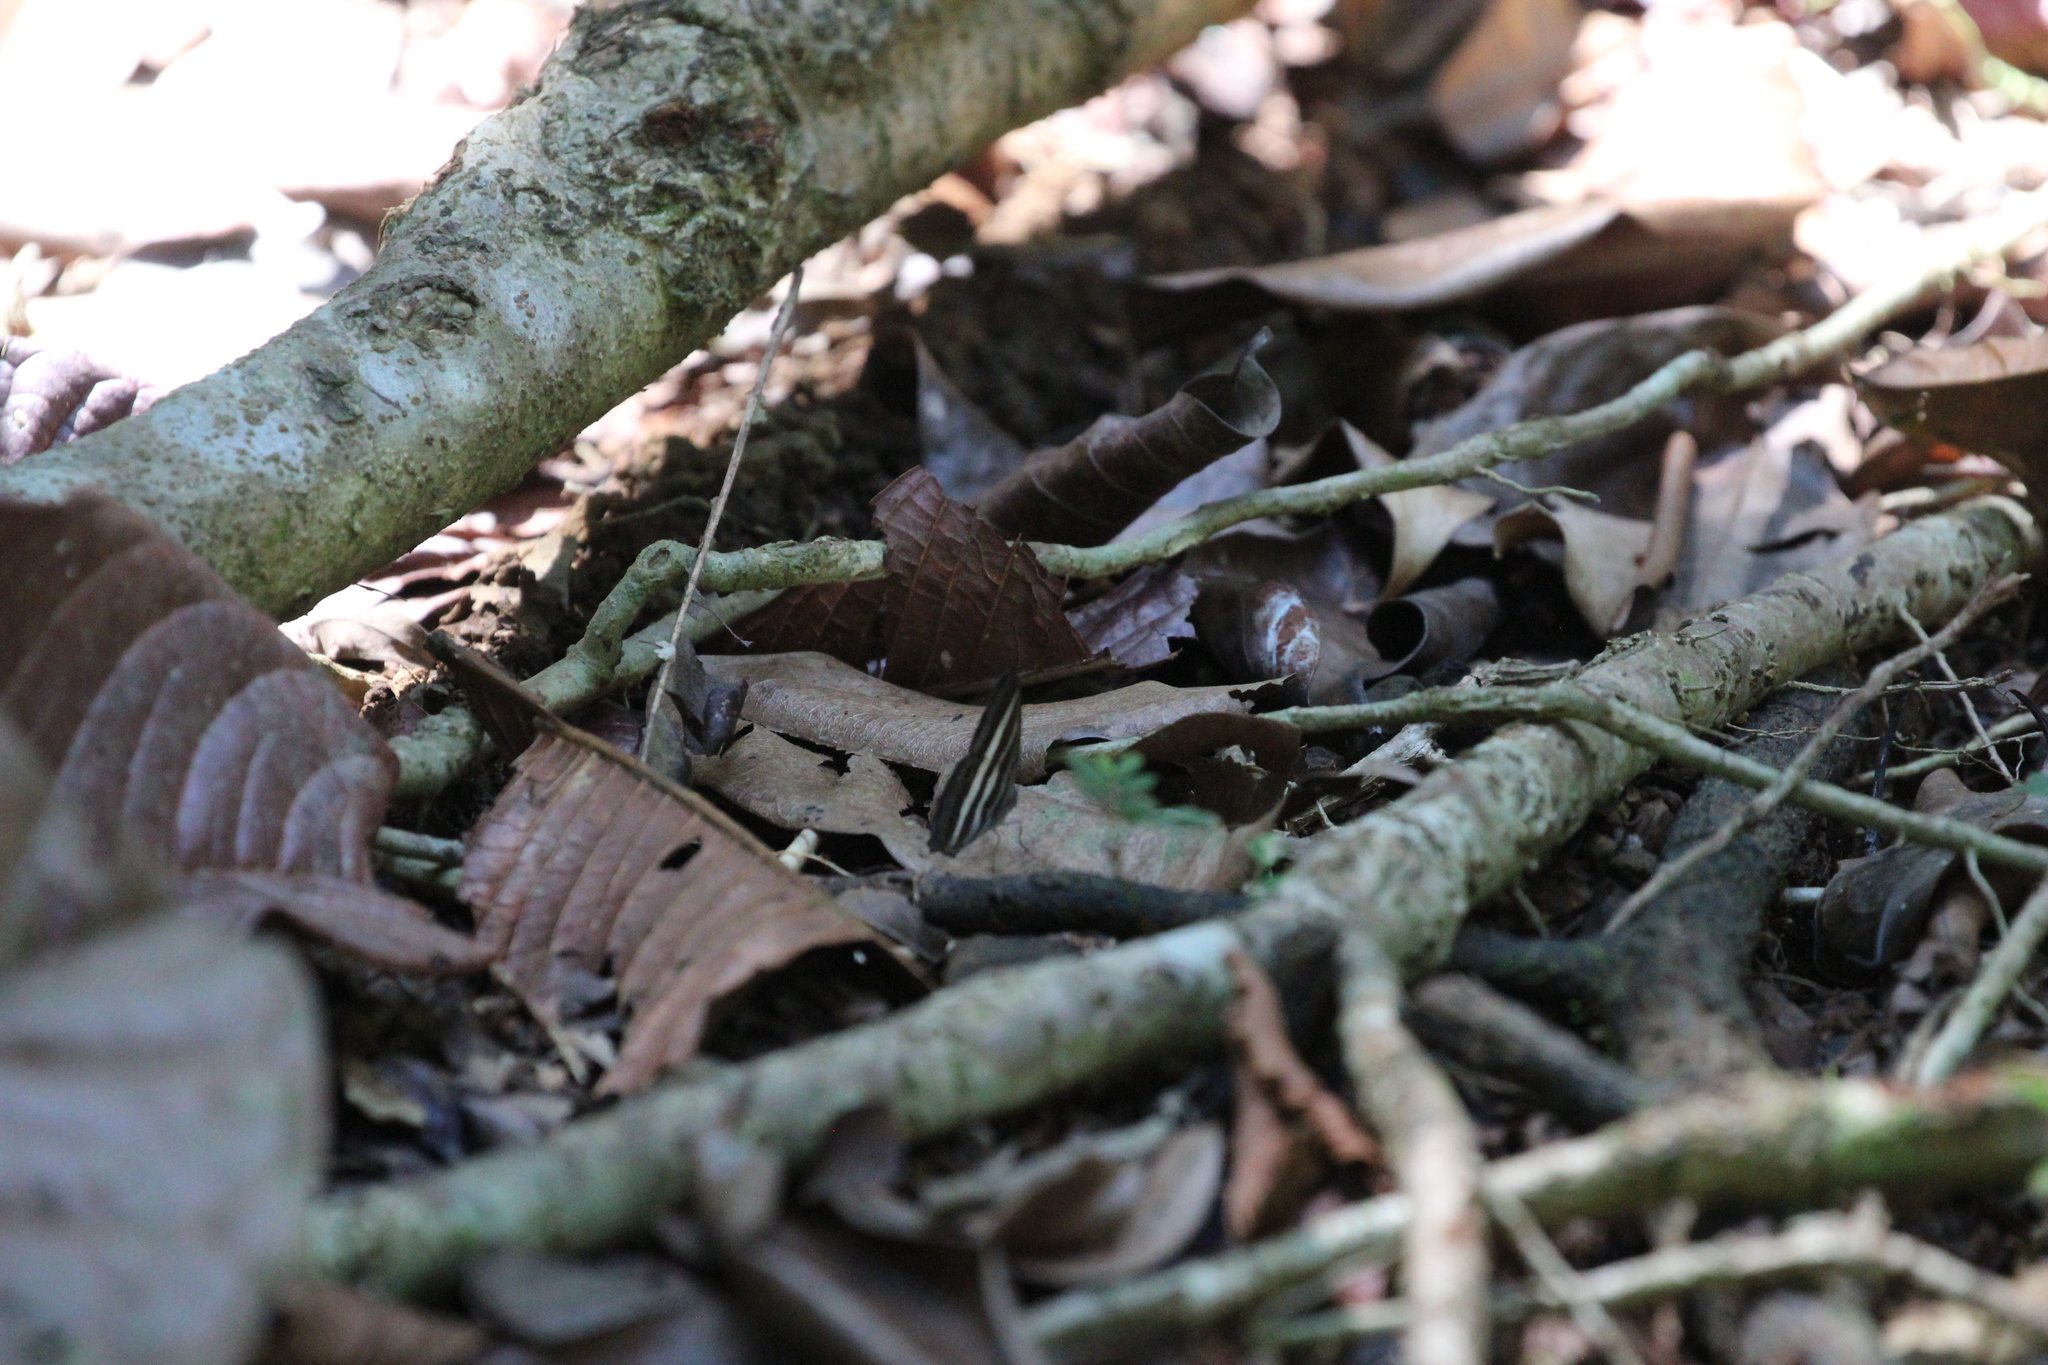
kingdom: Animalia
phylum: Arthropoda
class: Insecta
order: Lepidoptera
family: Nymphalidae
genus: Pareuptychia
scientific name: Pareuptychia hesione
